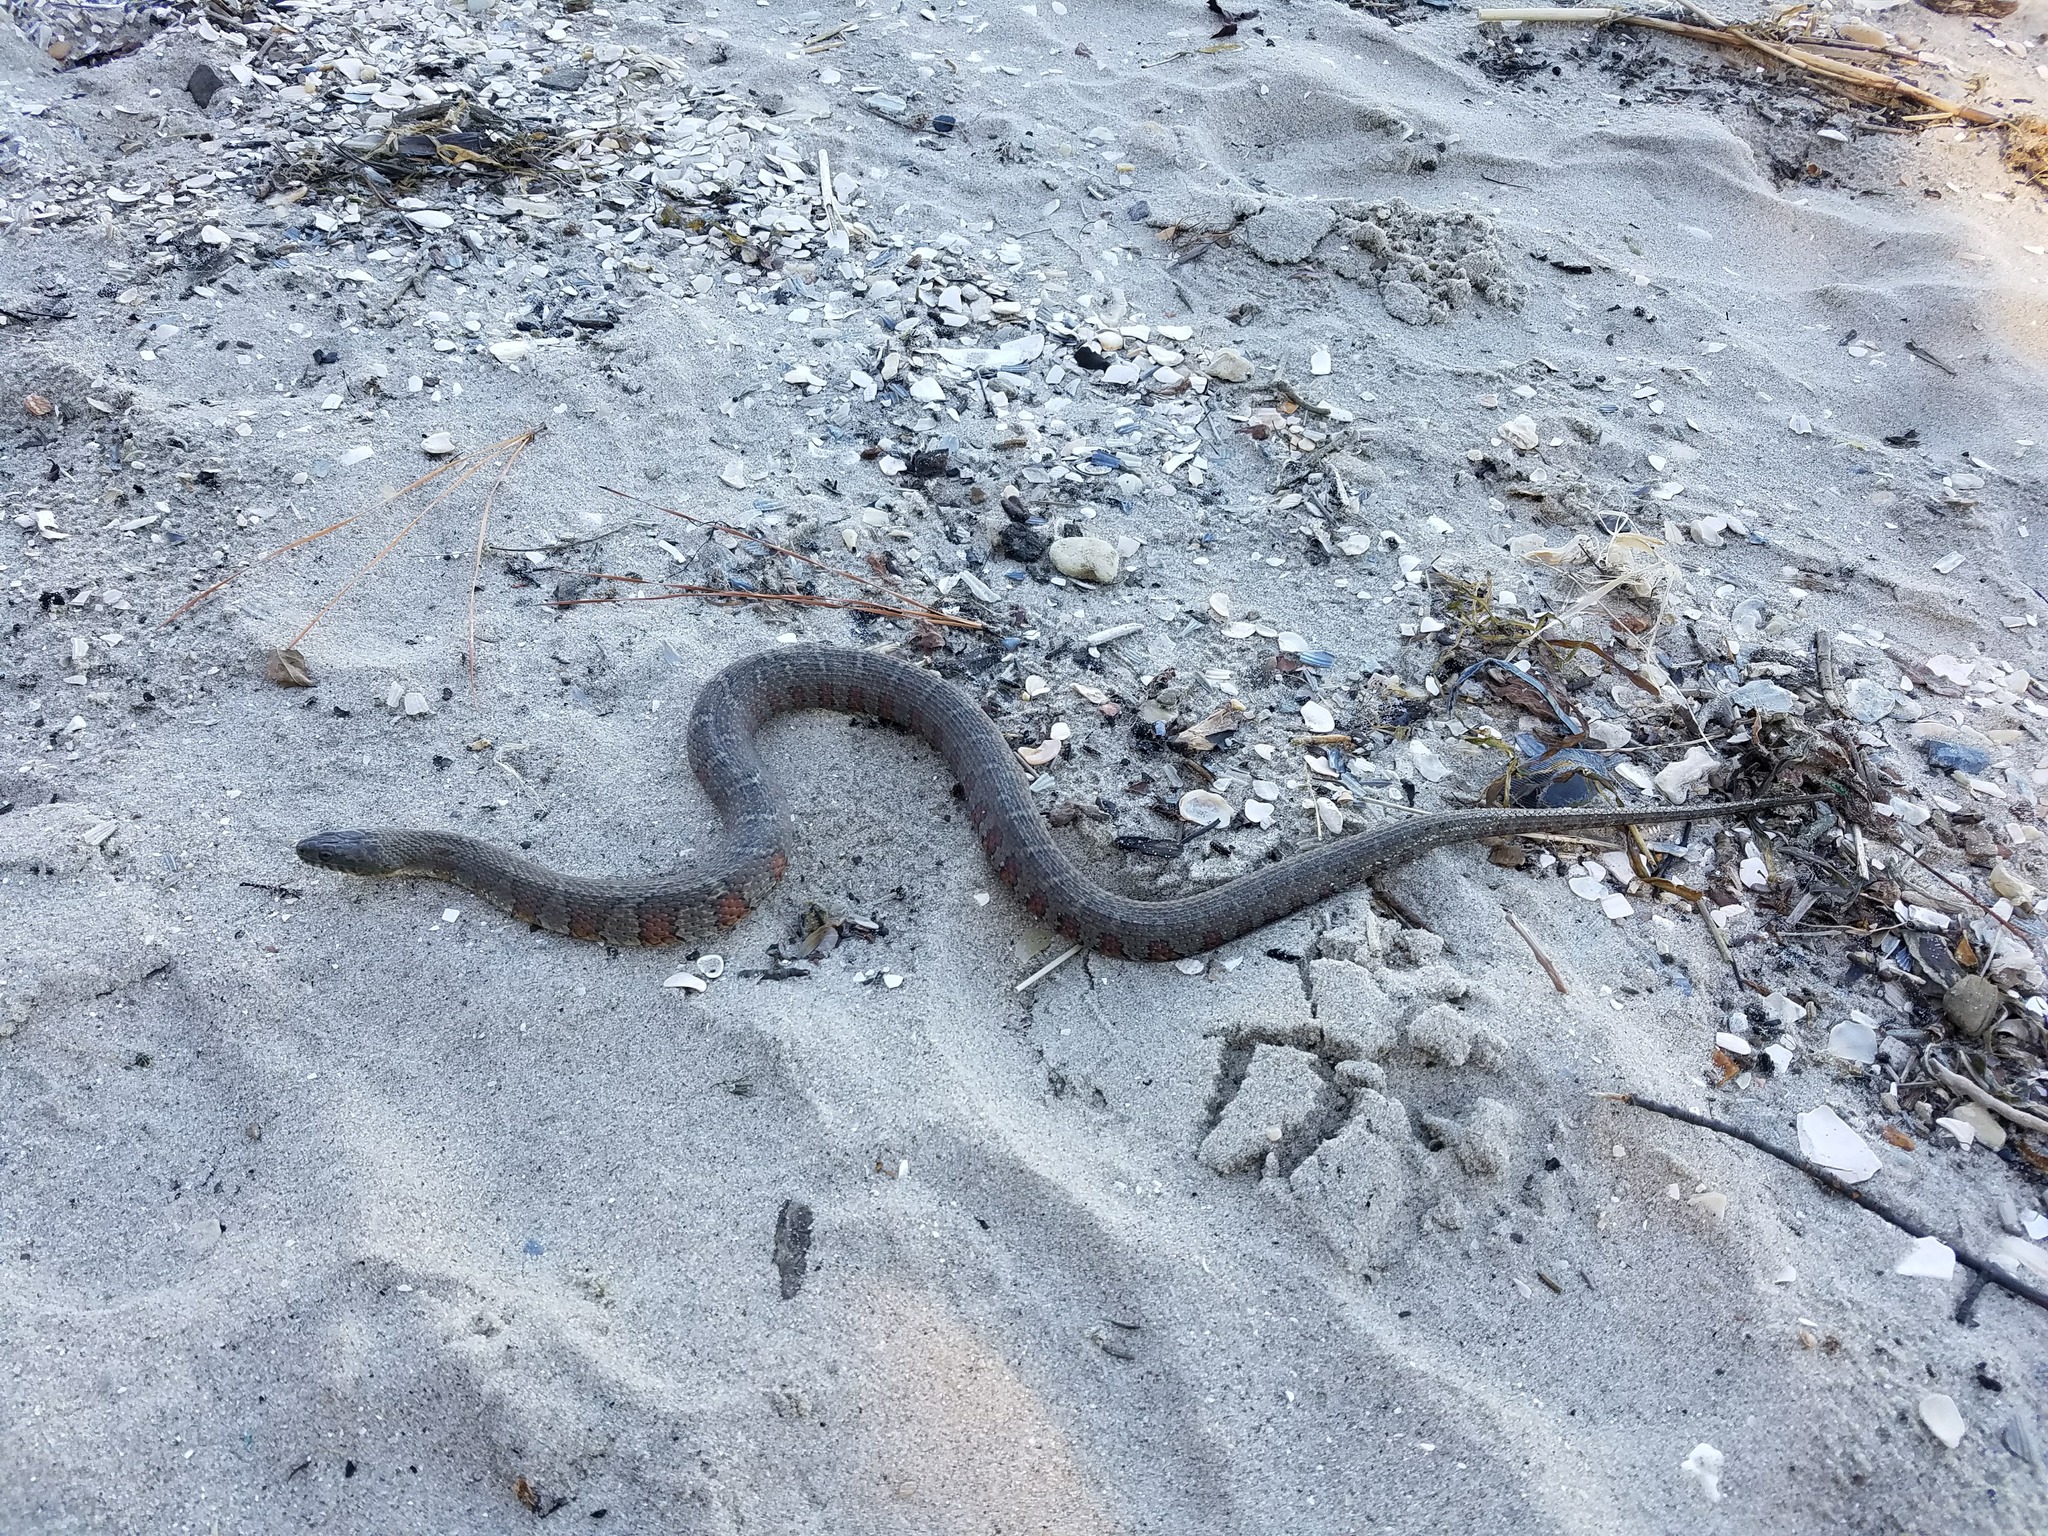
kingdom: Animalia
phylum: Chordata
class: Squamata
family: Colubridae
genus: Nerodia
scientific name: Nerodia sipedon
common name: Northern water snake
